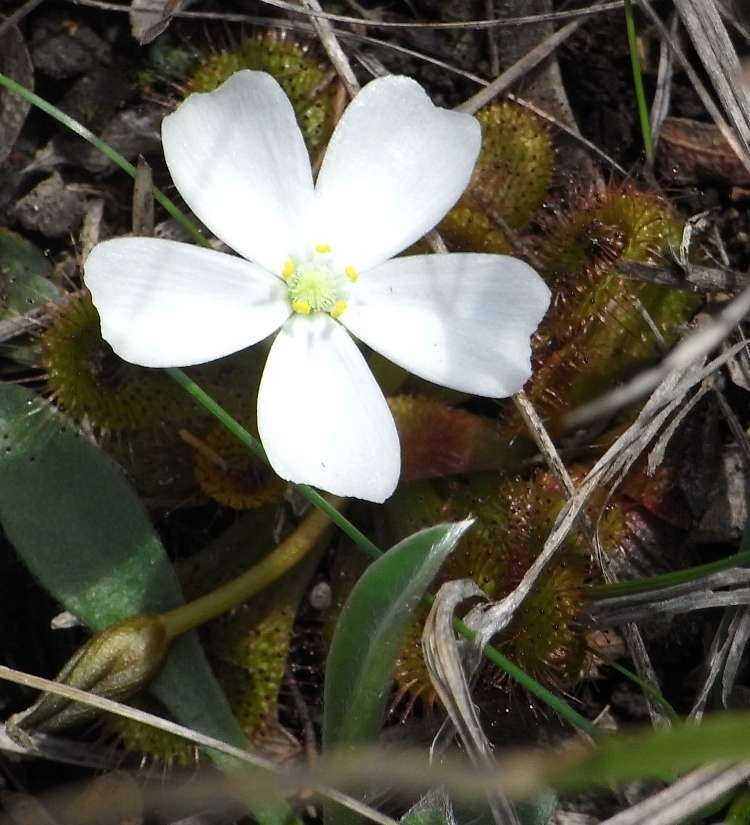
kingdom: Plantae
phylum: Tracheophyta
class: Magnoliopsida
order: Caryophyllales
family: Droseraceae
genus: Drosera
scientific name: Drosera aberrans
